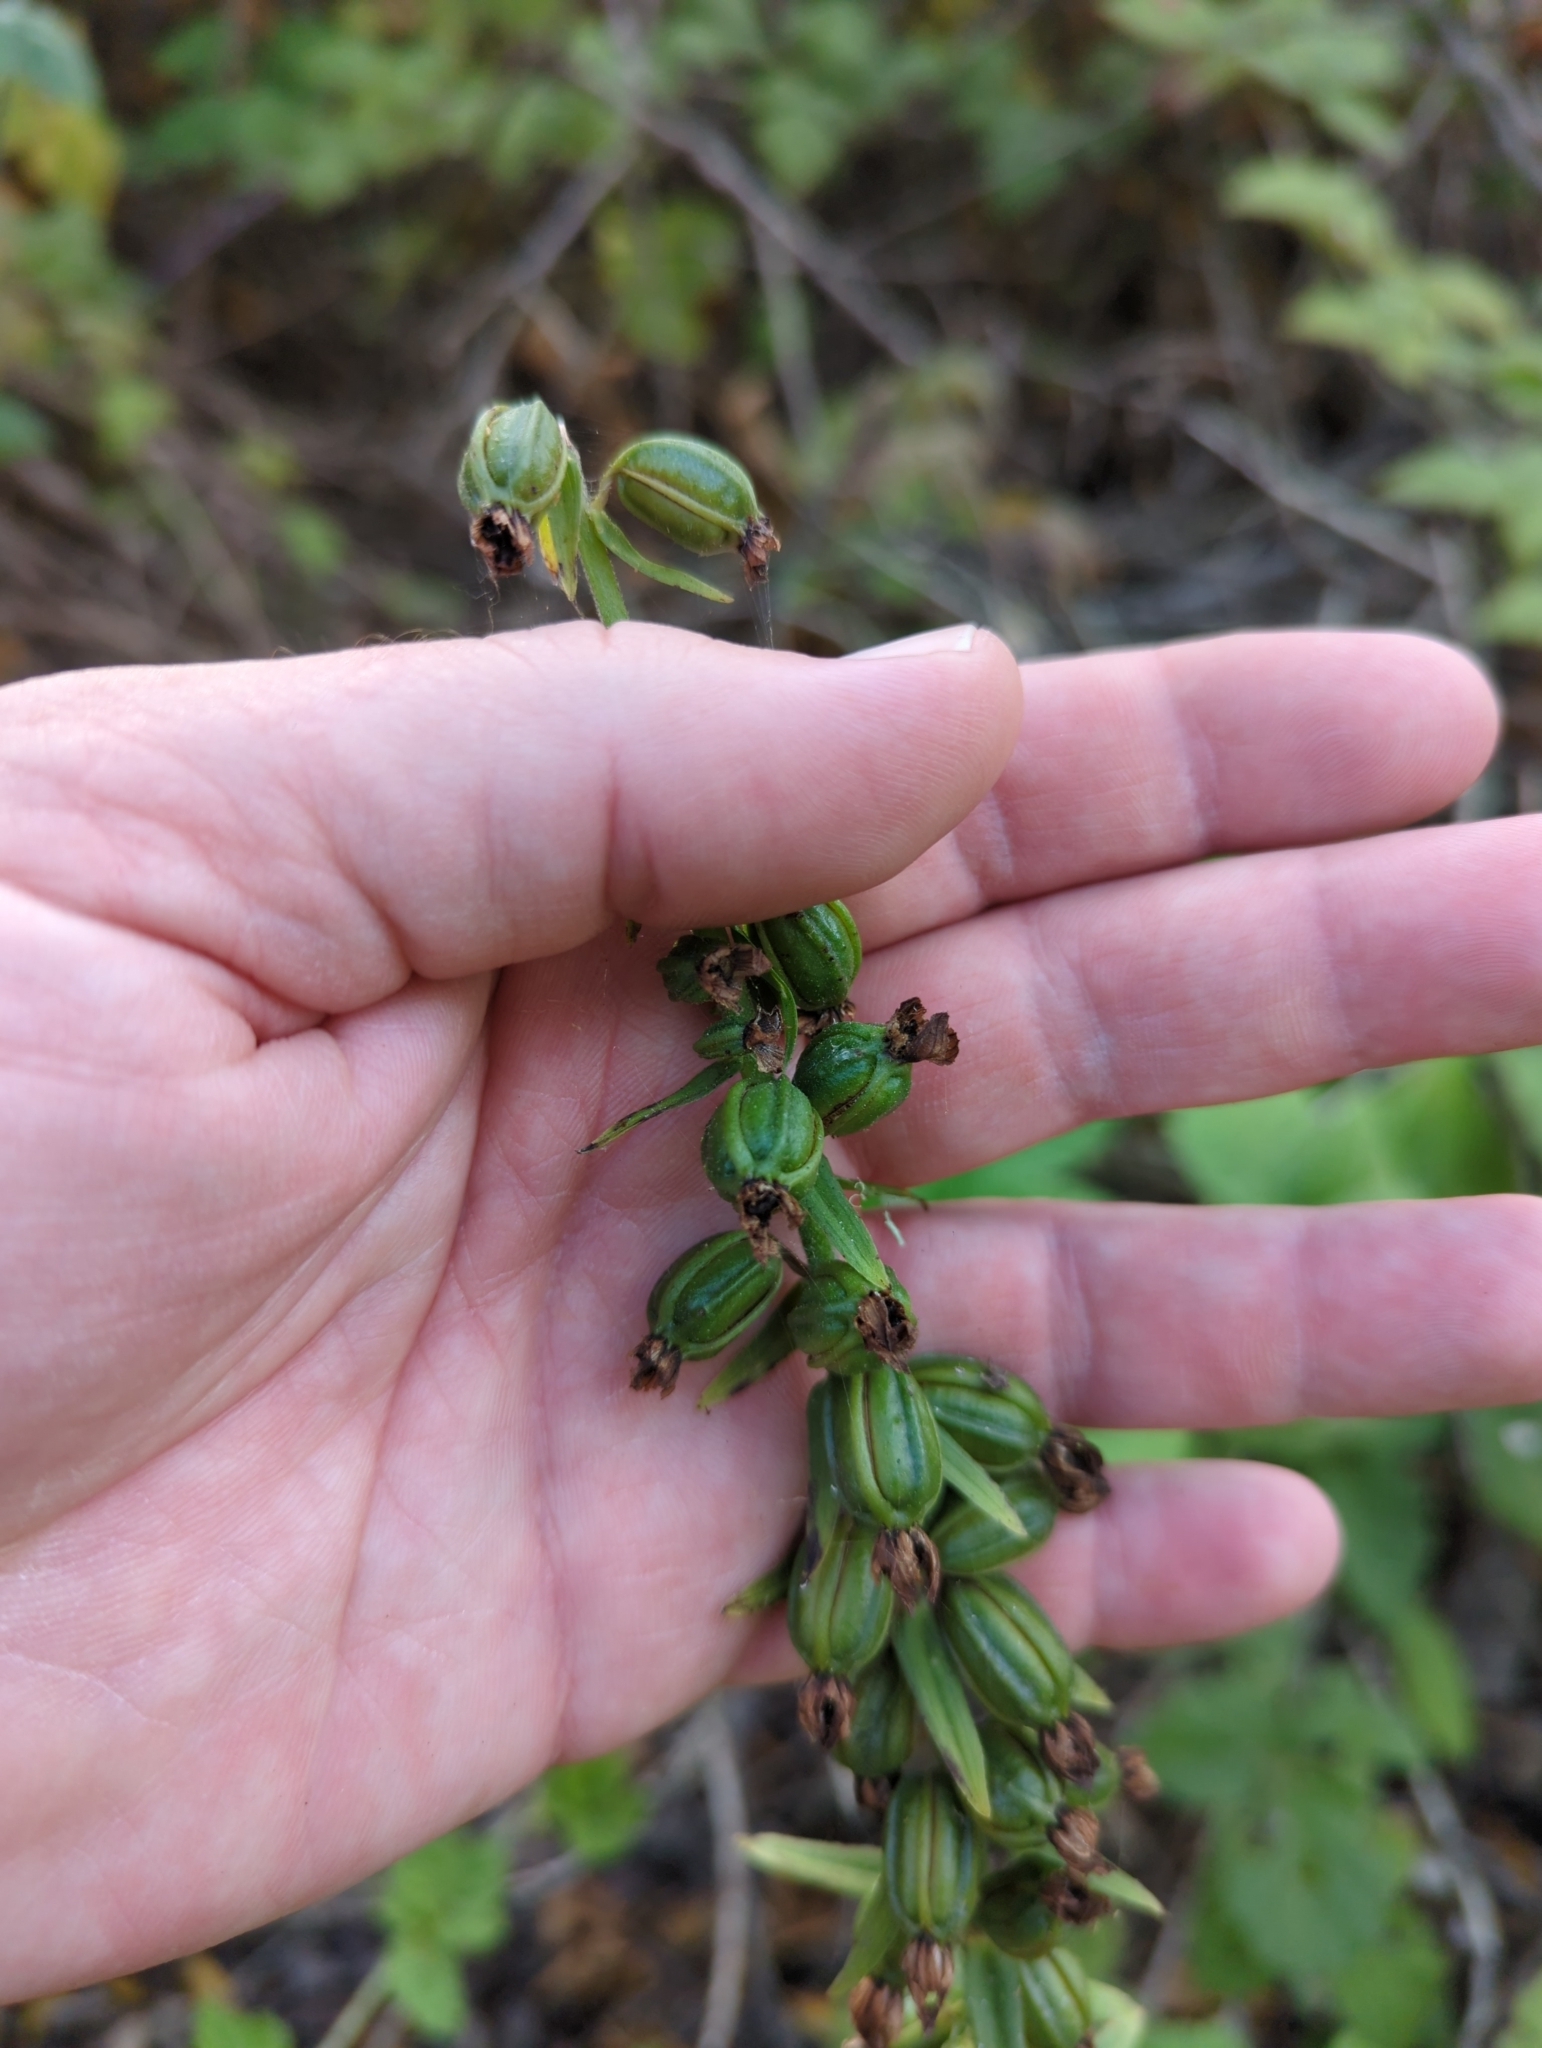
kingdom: Plantae
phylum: Tracheophyta
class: Liliopsida
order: Asparagales
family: Orchidaceae
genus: Epipactis
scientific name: Epipactis helleborine
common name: Broad-leaved helleborine
